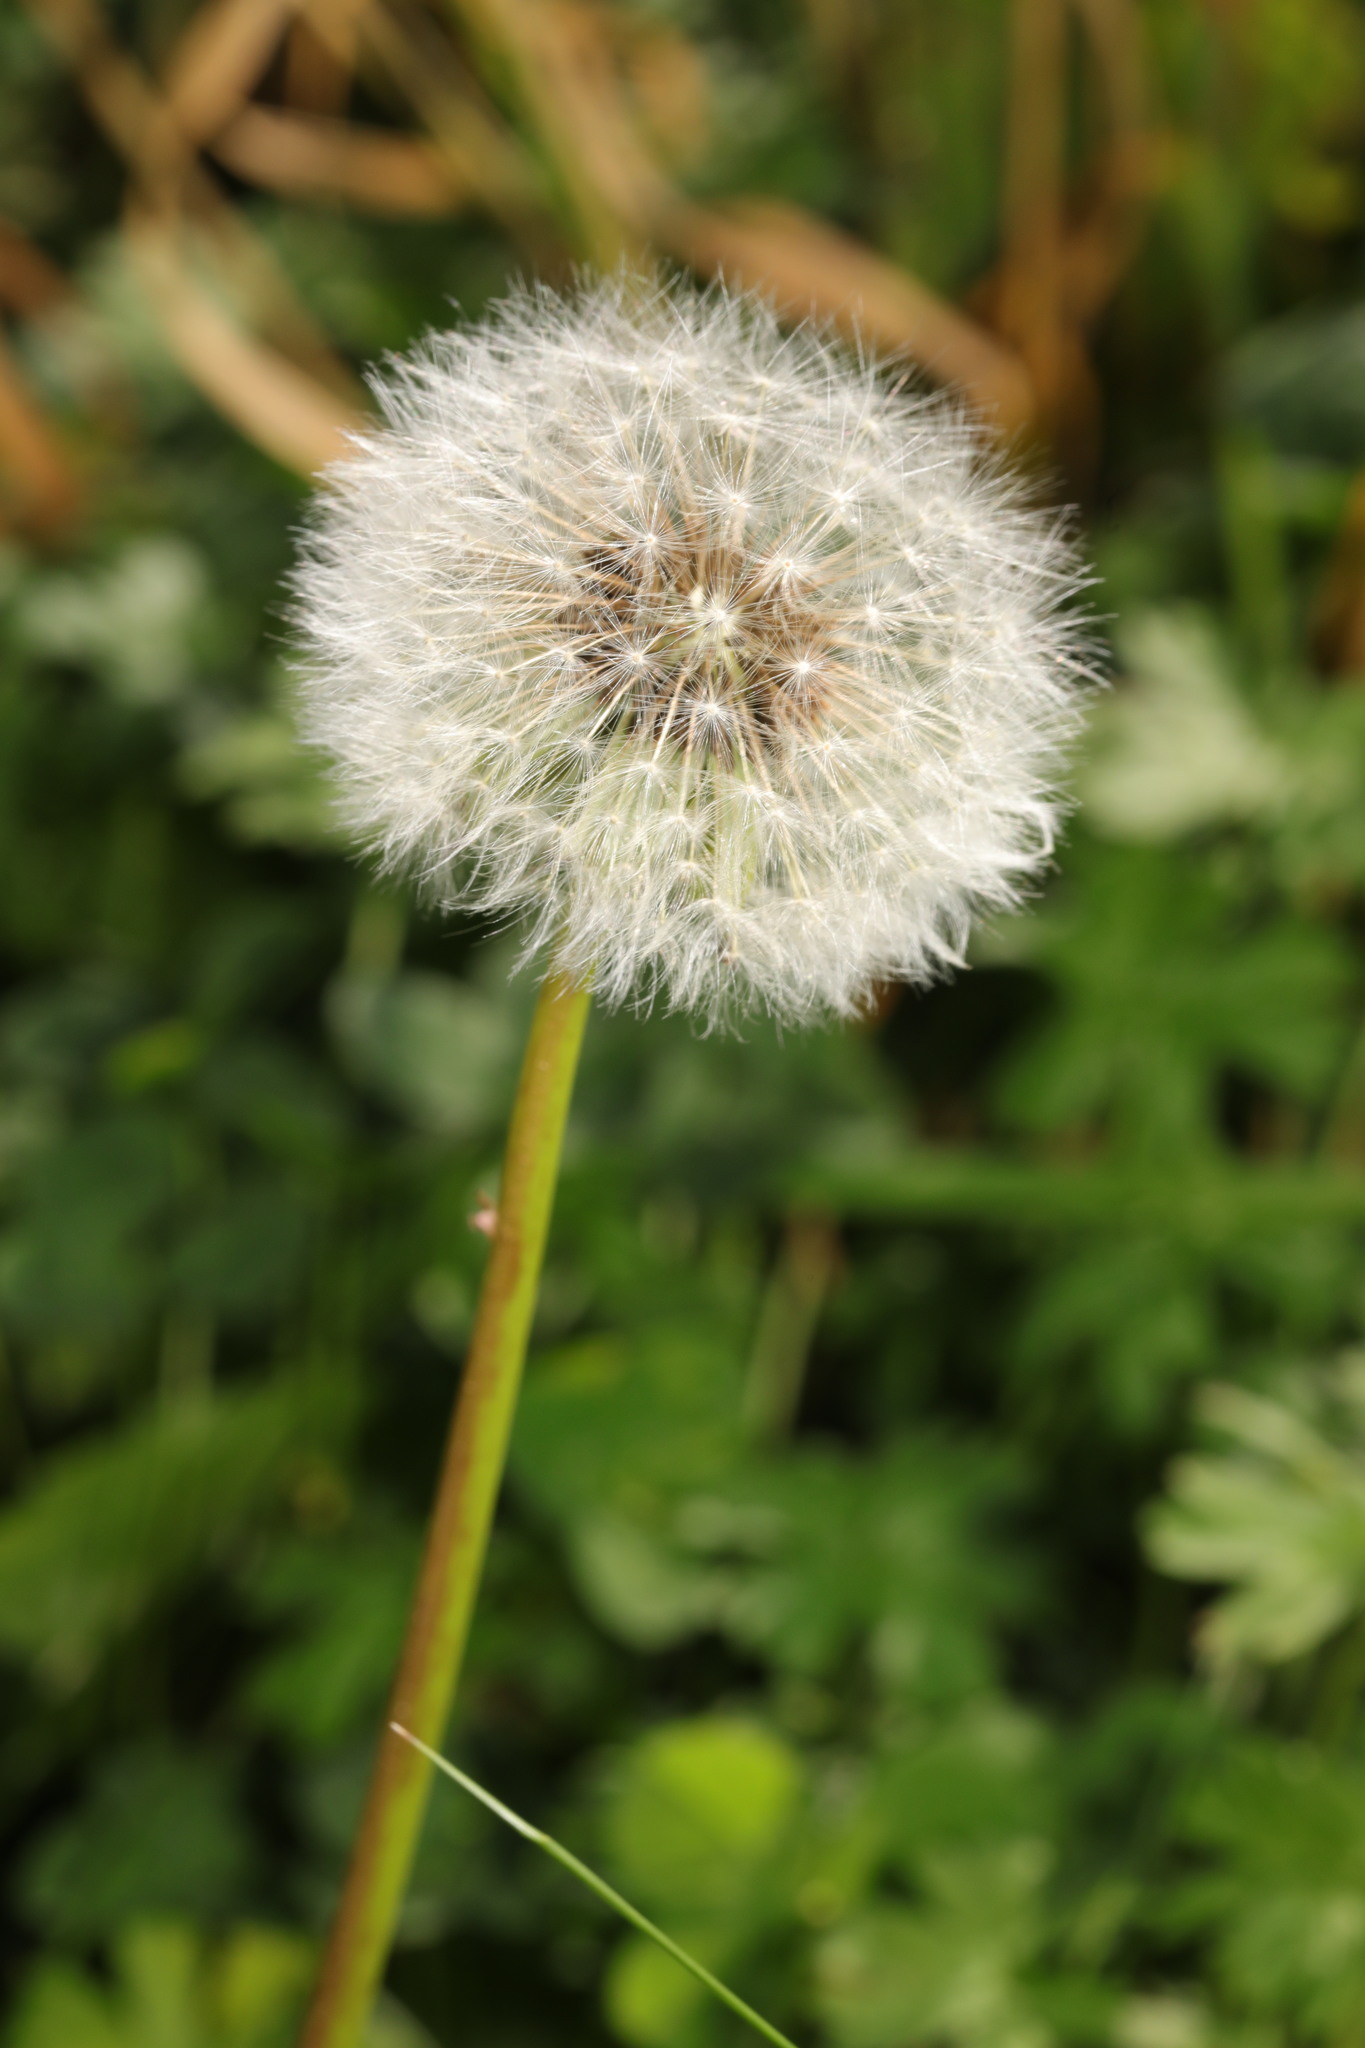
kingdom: Plantae
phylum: Tracheophyta
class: Magnoliopsida
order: Asterales
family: Asteraceae
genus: Taraxacum
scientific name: Taraxacum officinale
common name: Common dandelion
